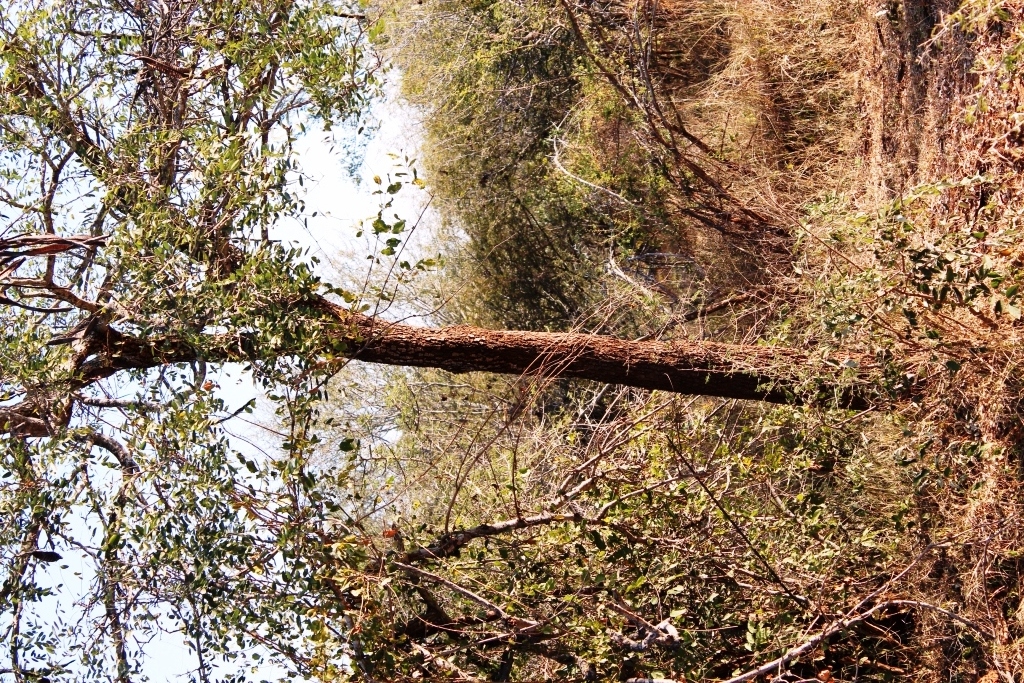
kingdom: Plantae
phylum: Tracheophyta
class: Magnoliopsida
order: Fabales
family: Fabaceae
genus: Cassia
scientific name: Cassia abbreviata
